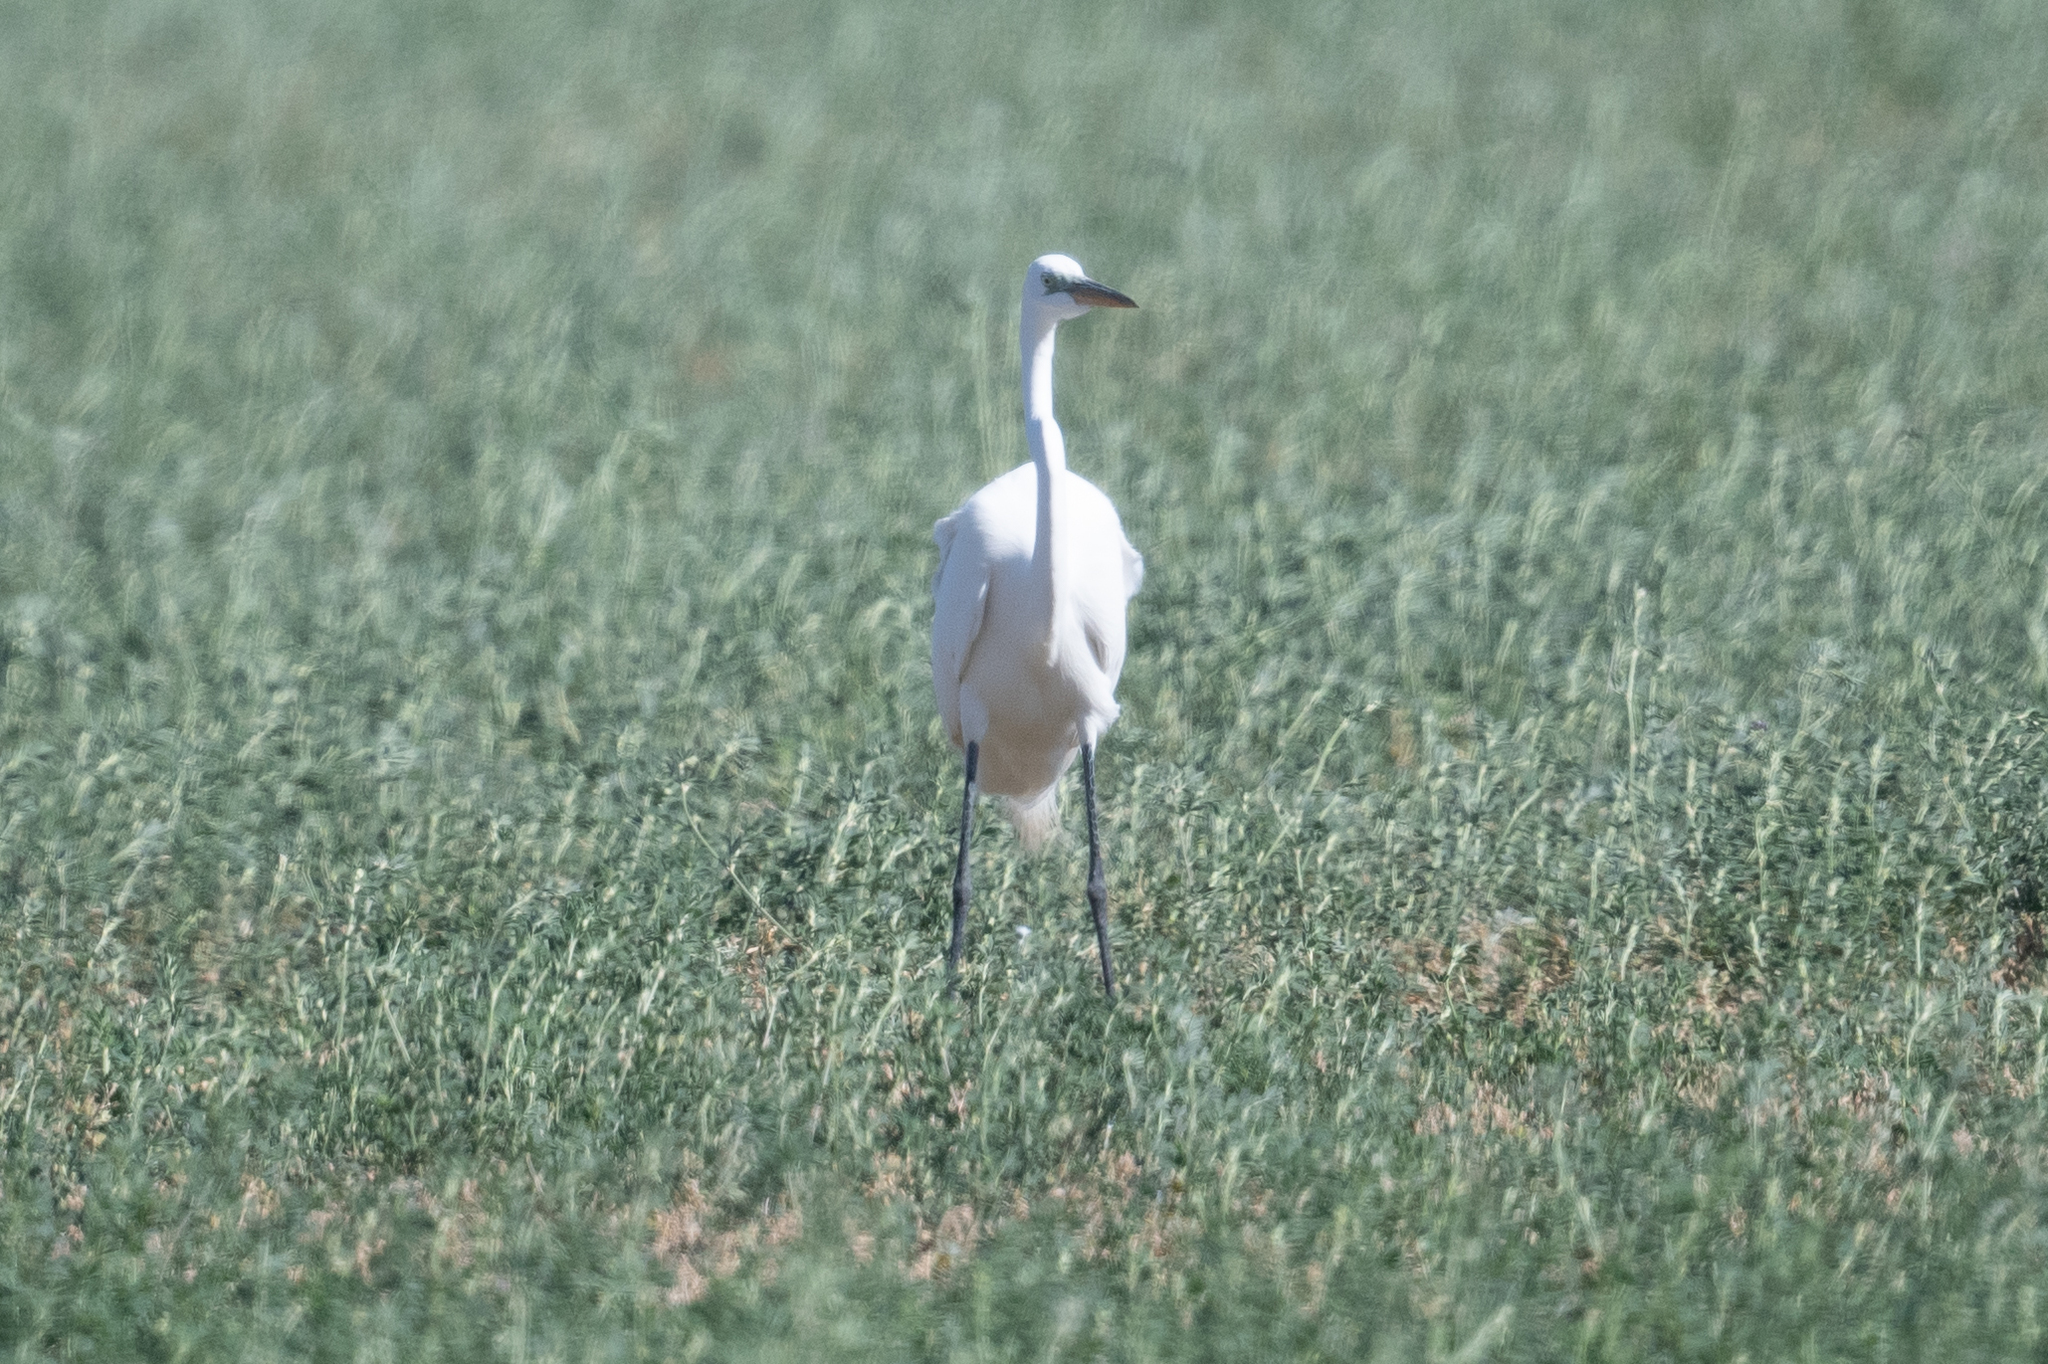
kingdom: Animalia
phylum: Chordata
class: Aves
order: Pelecaniformes
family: Ardeidae
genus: Ardea
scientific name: Ardea alba
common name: Great egret
